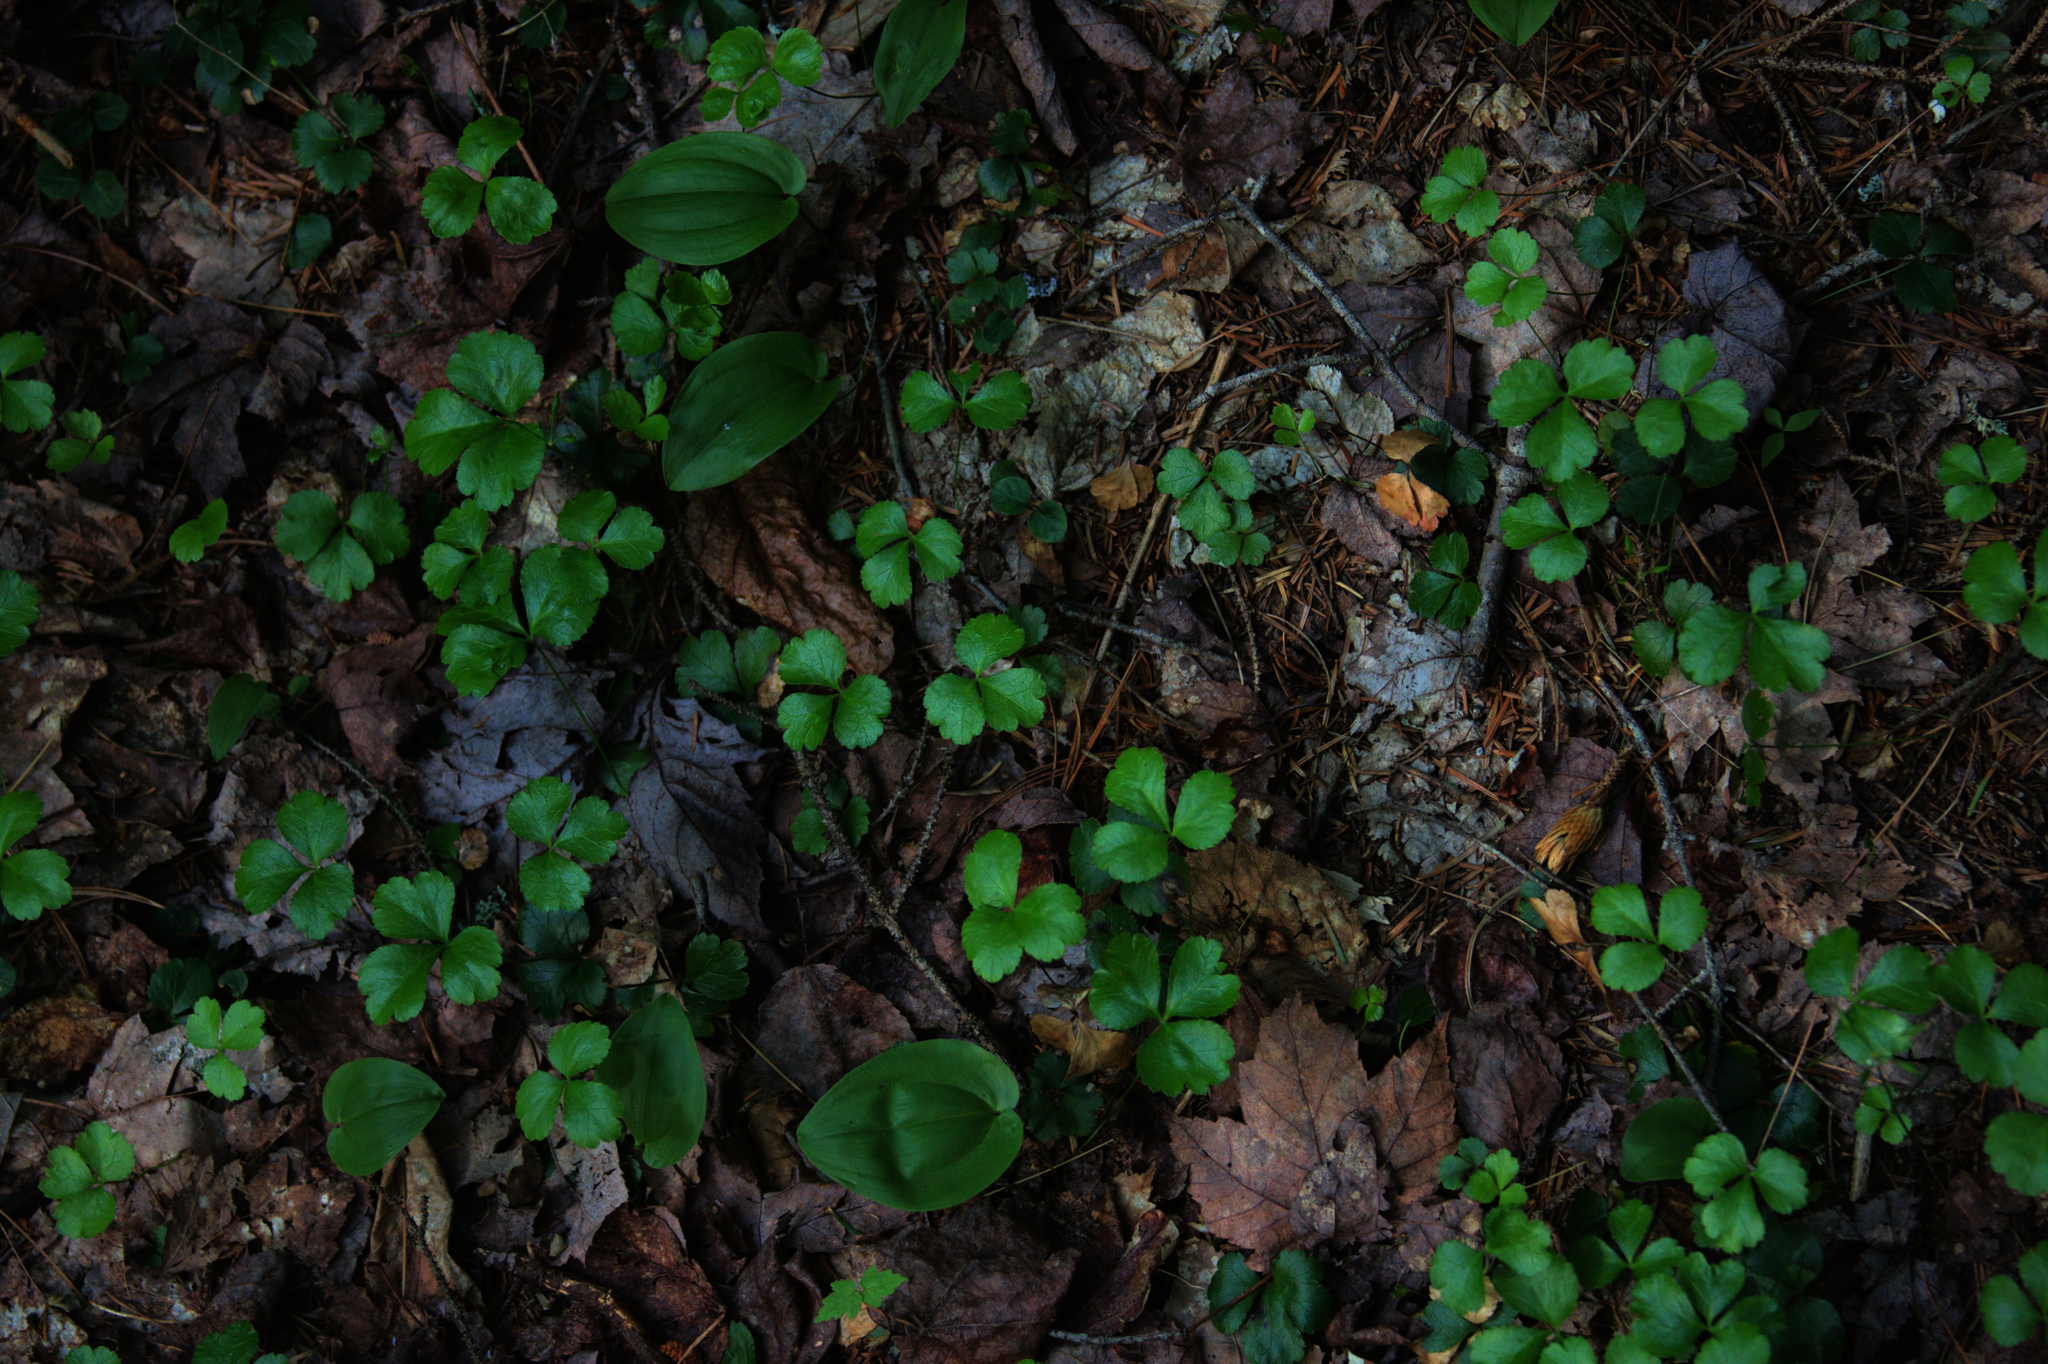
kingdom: Plantae
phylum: Tracheophyta
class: Liliopsida
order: Asparagales
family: Asparagaceae
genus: Maianthemum
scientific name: Maianthemum canadense
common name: False lily-of-the-valley
